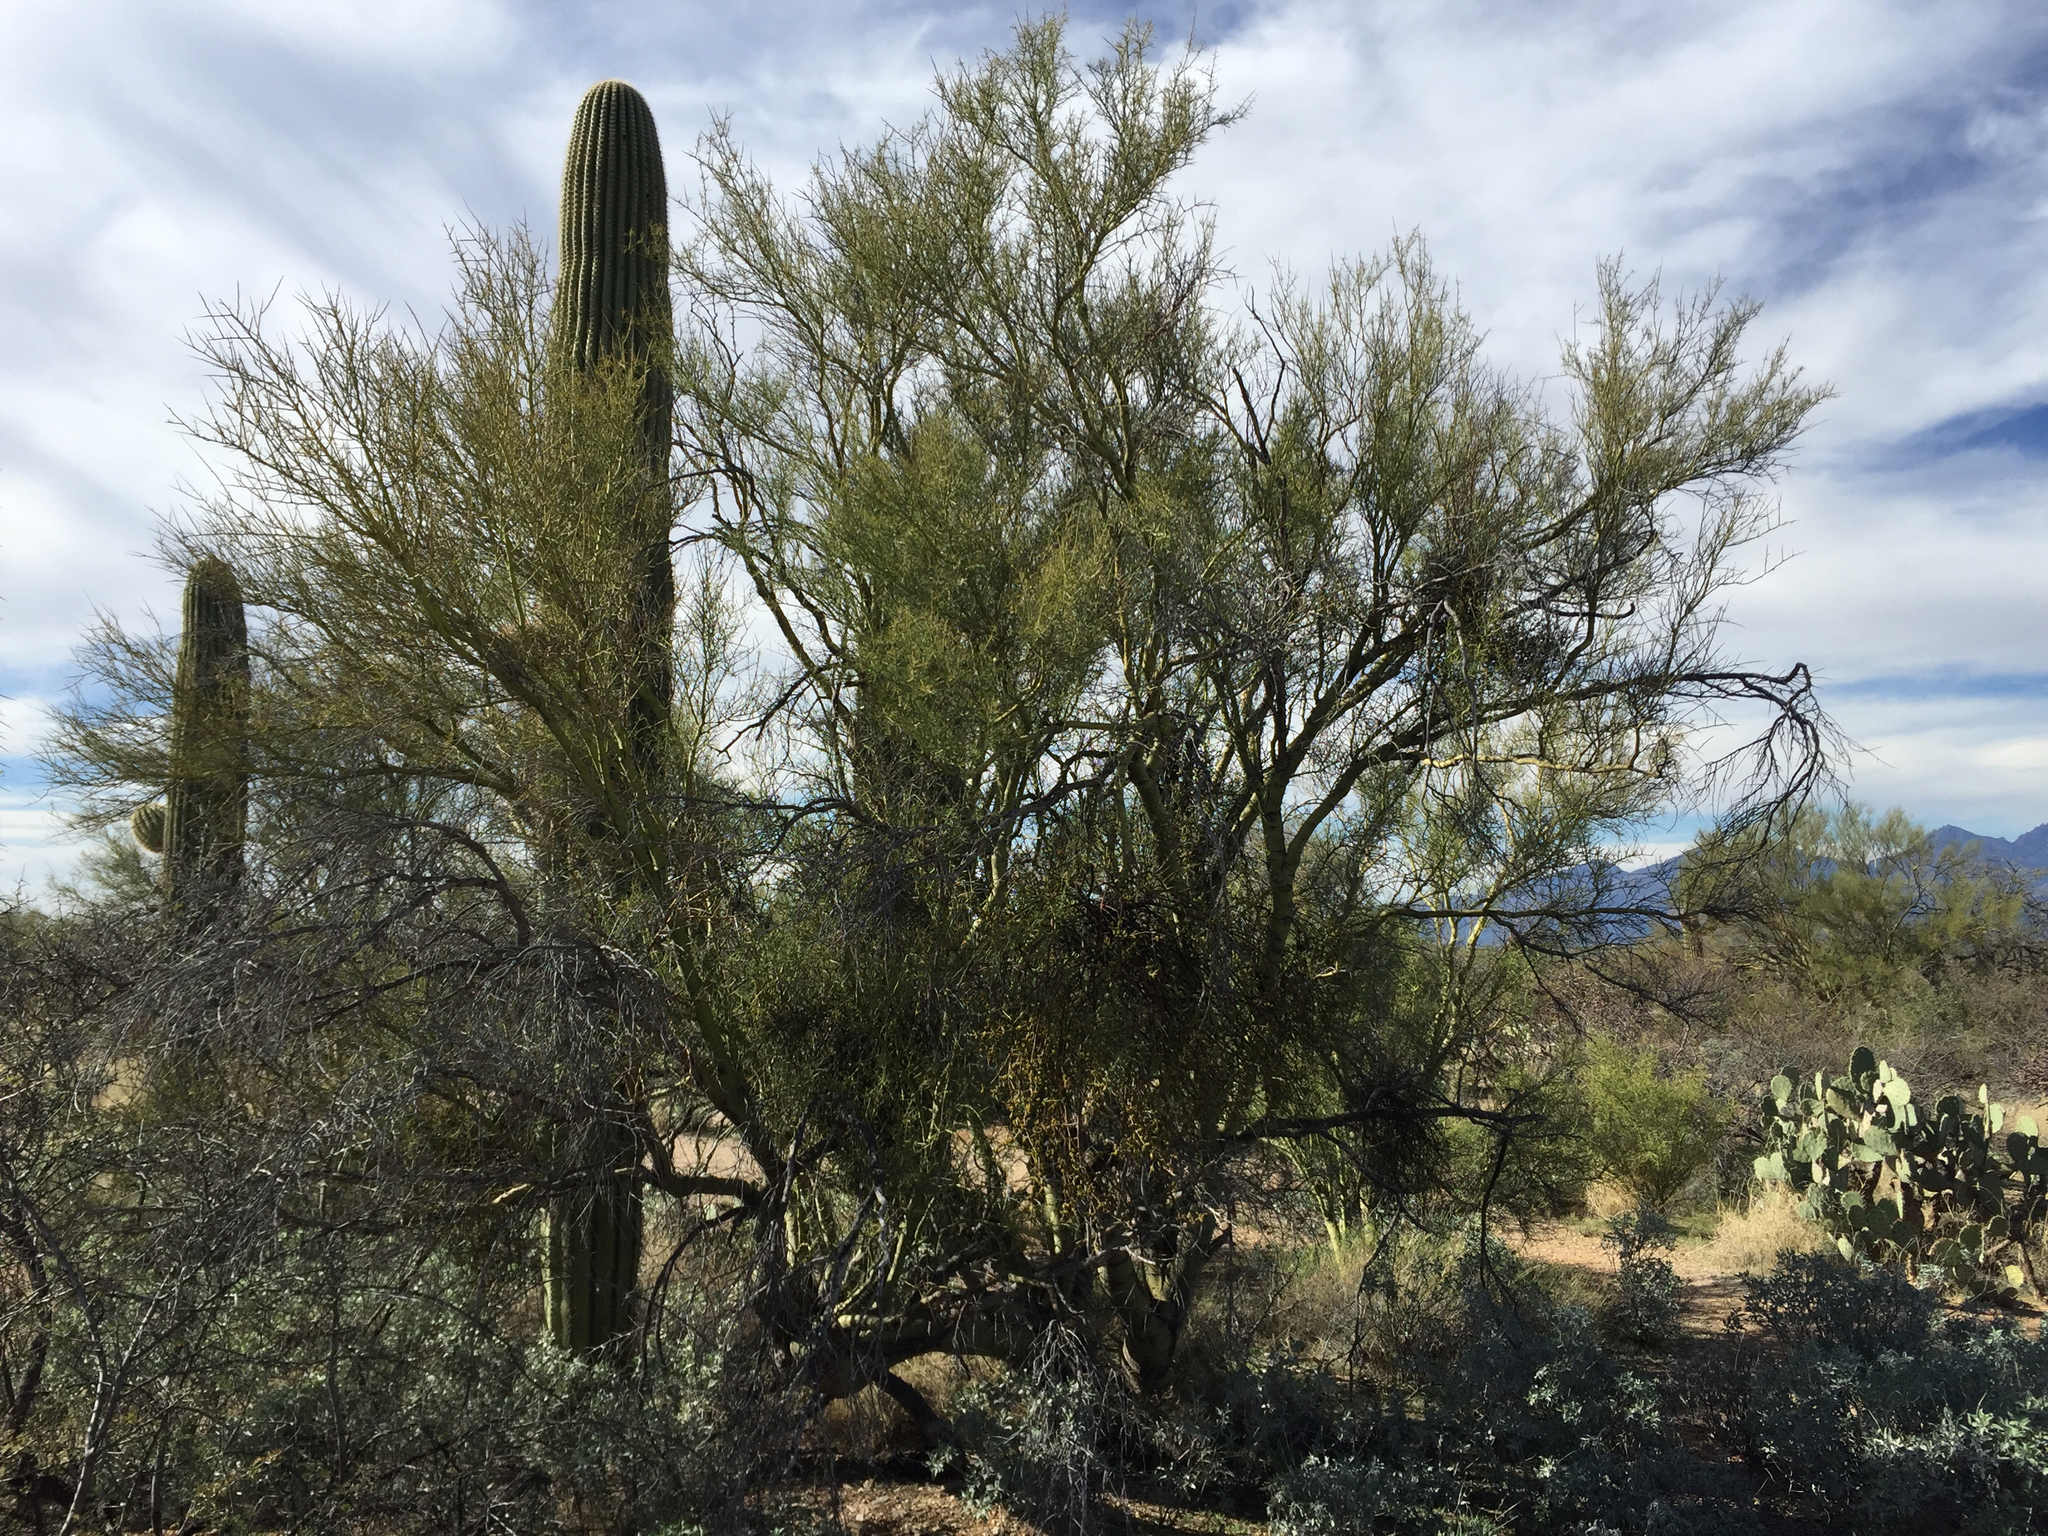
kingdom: Plantae
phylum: Tracheophyta
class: Magnoliopsida
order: Fabales
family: Fabaceae
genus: Parkinsonia
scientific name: Parkinsonia microphylla
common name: Yellow paloverde
